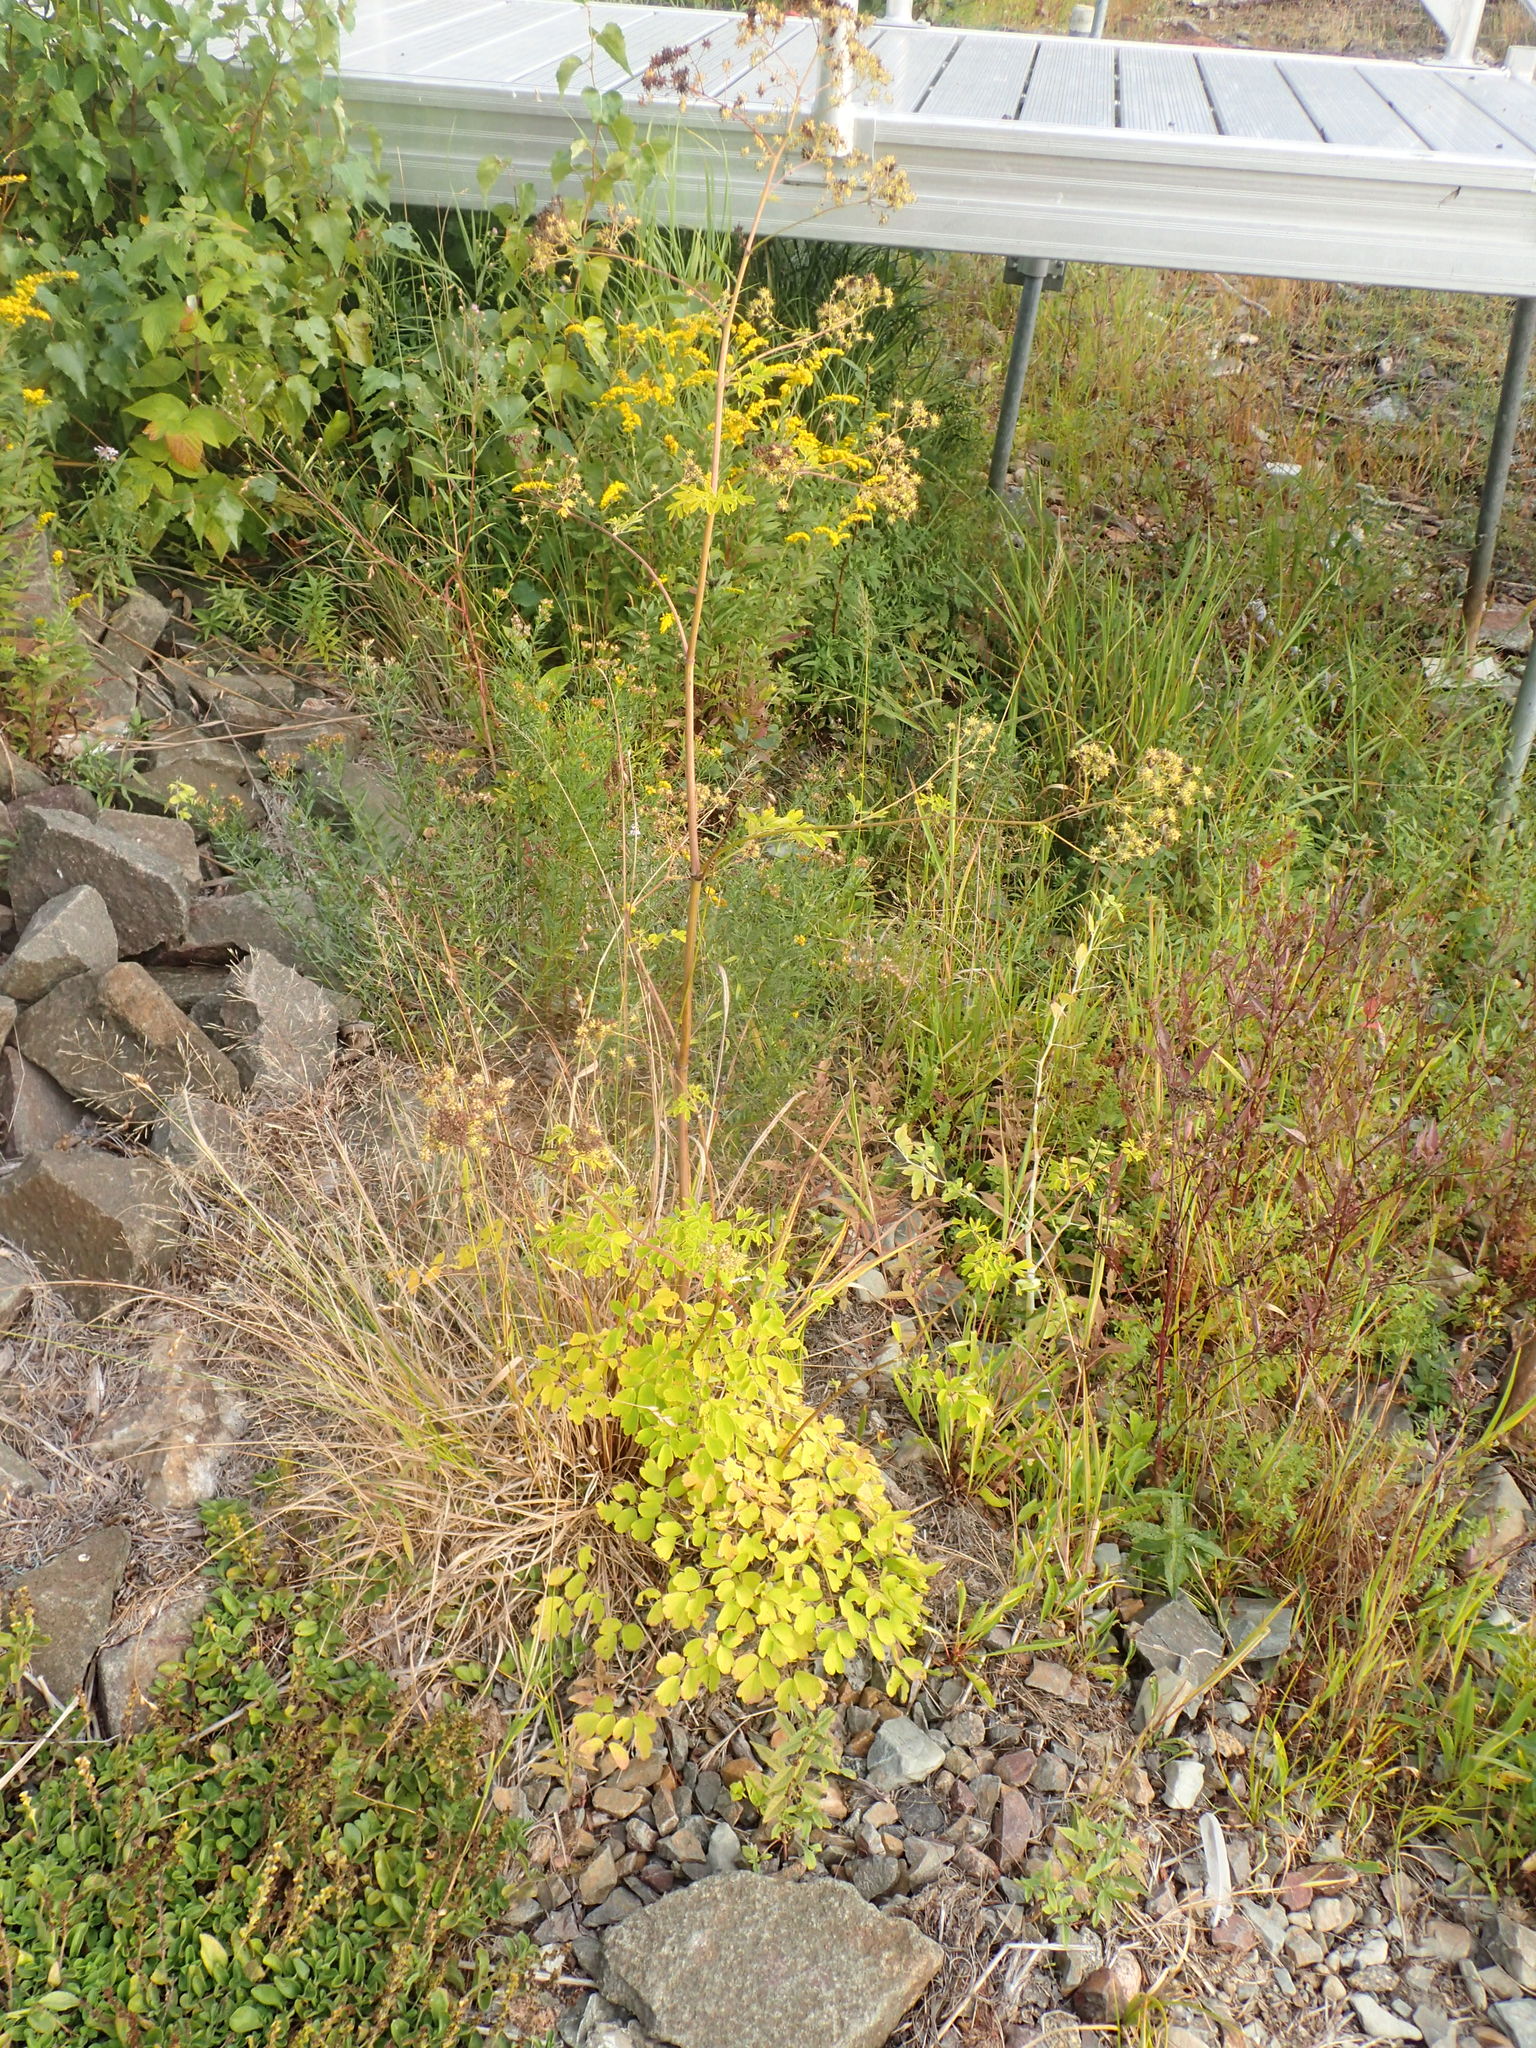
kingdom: Plantae
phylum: Tracheophyta
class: Magnoliopsida
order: Ranunculales
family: Ranunculaceae
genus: Thalictrum
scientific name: Thalictrum pubescens
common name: King-of-the-meadow
